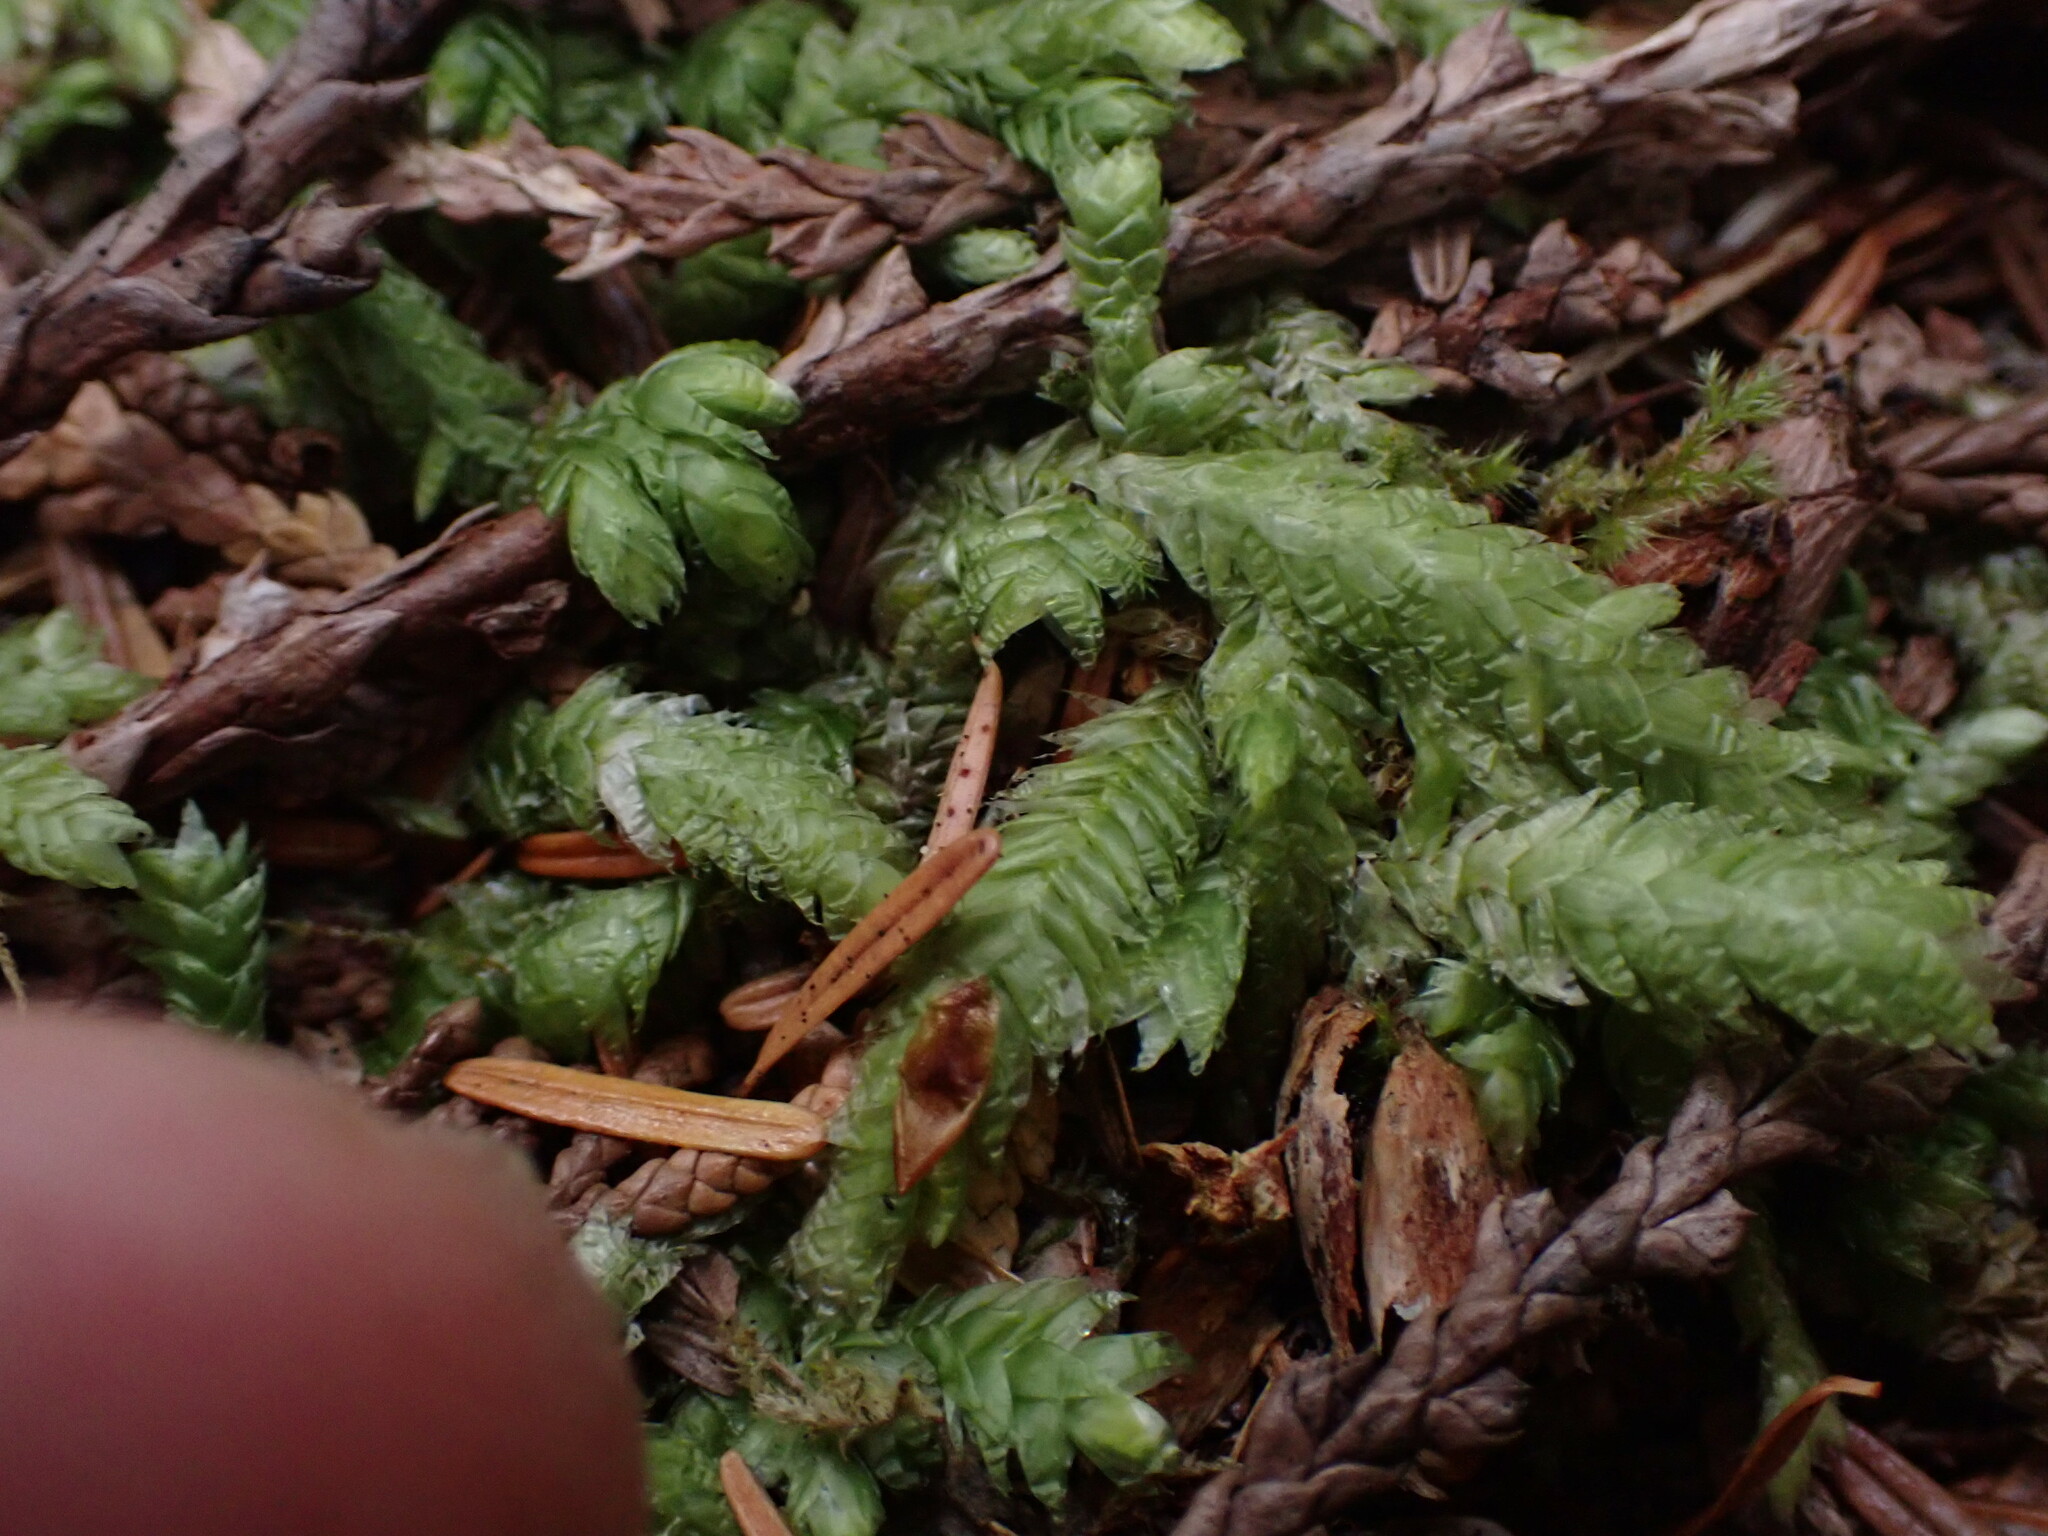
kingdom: Plantae
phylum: Bryophyta
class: Bryopsida
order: Hypnales
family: Plagiotheciaceae
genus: Plagiothecium
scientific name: Plagiothecium undulatum
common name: Waved silk-moss
